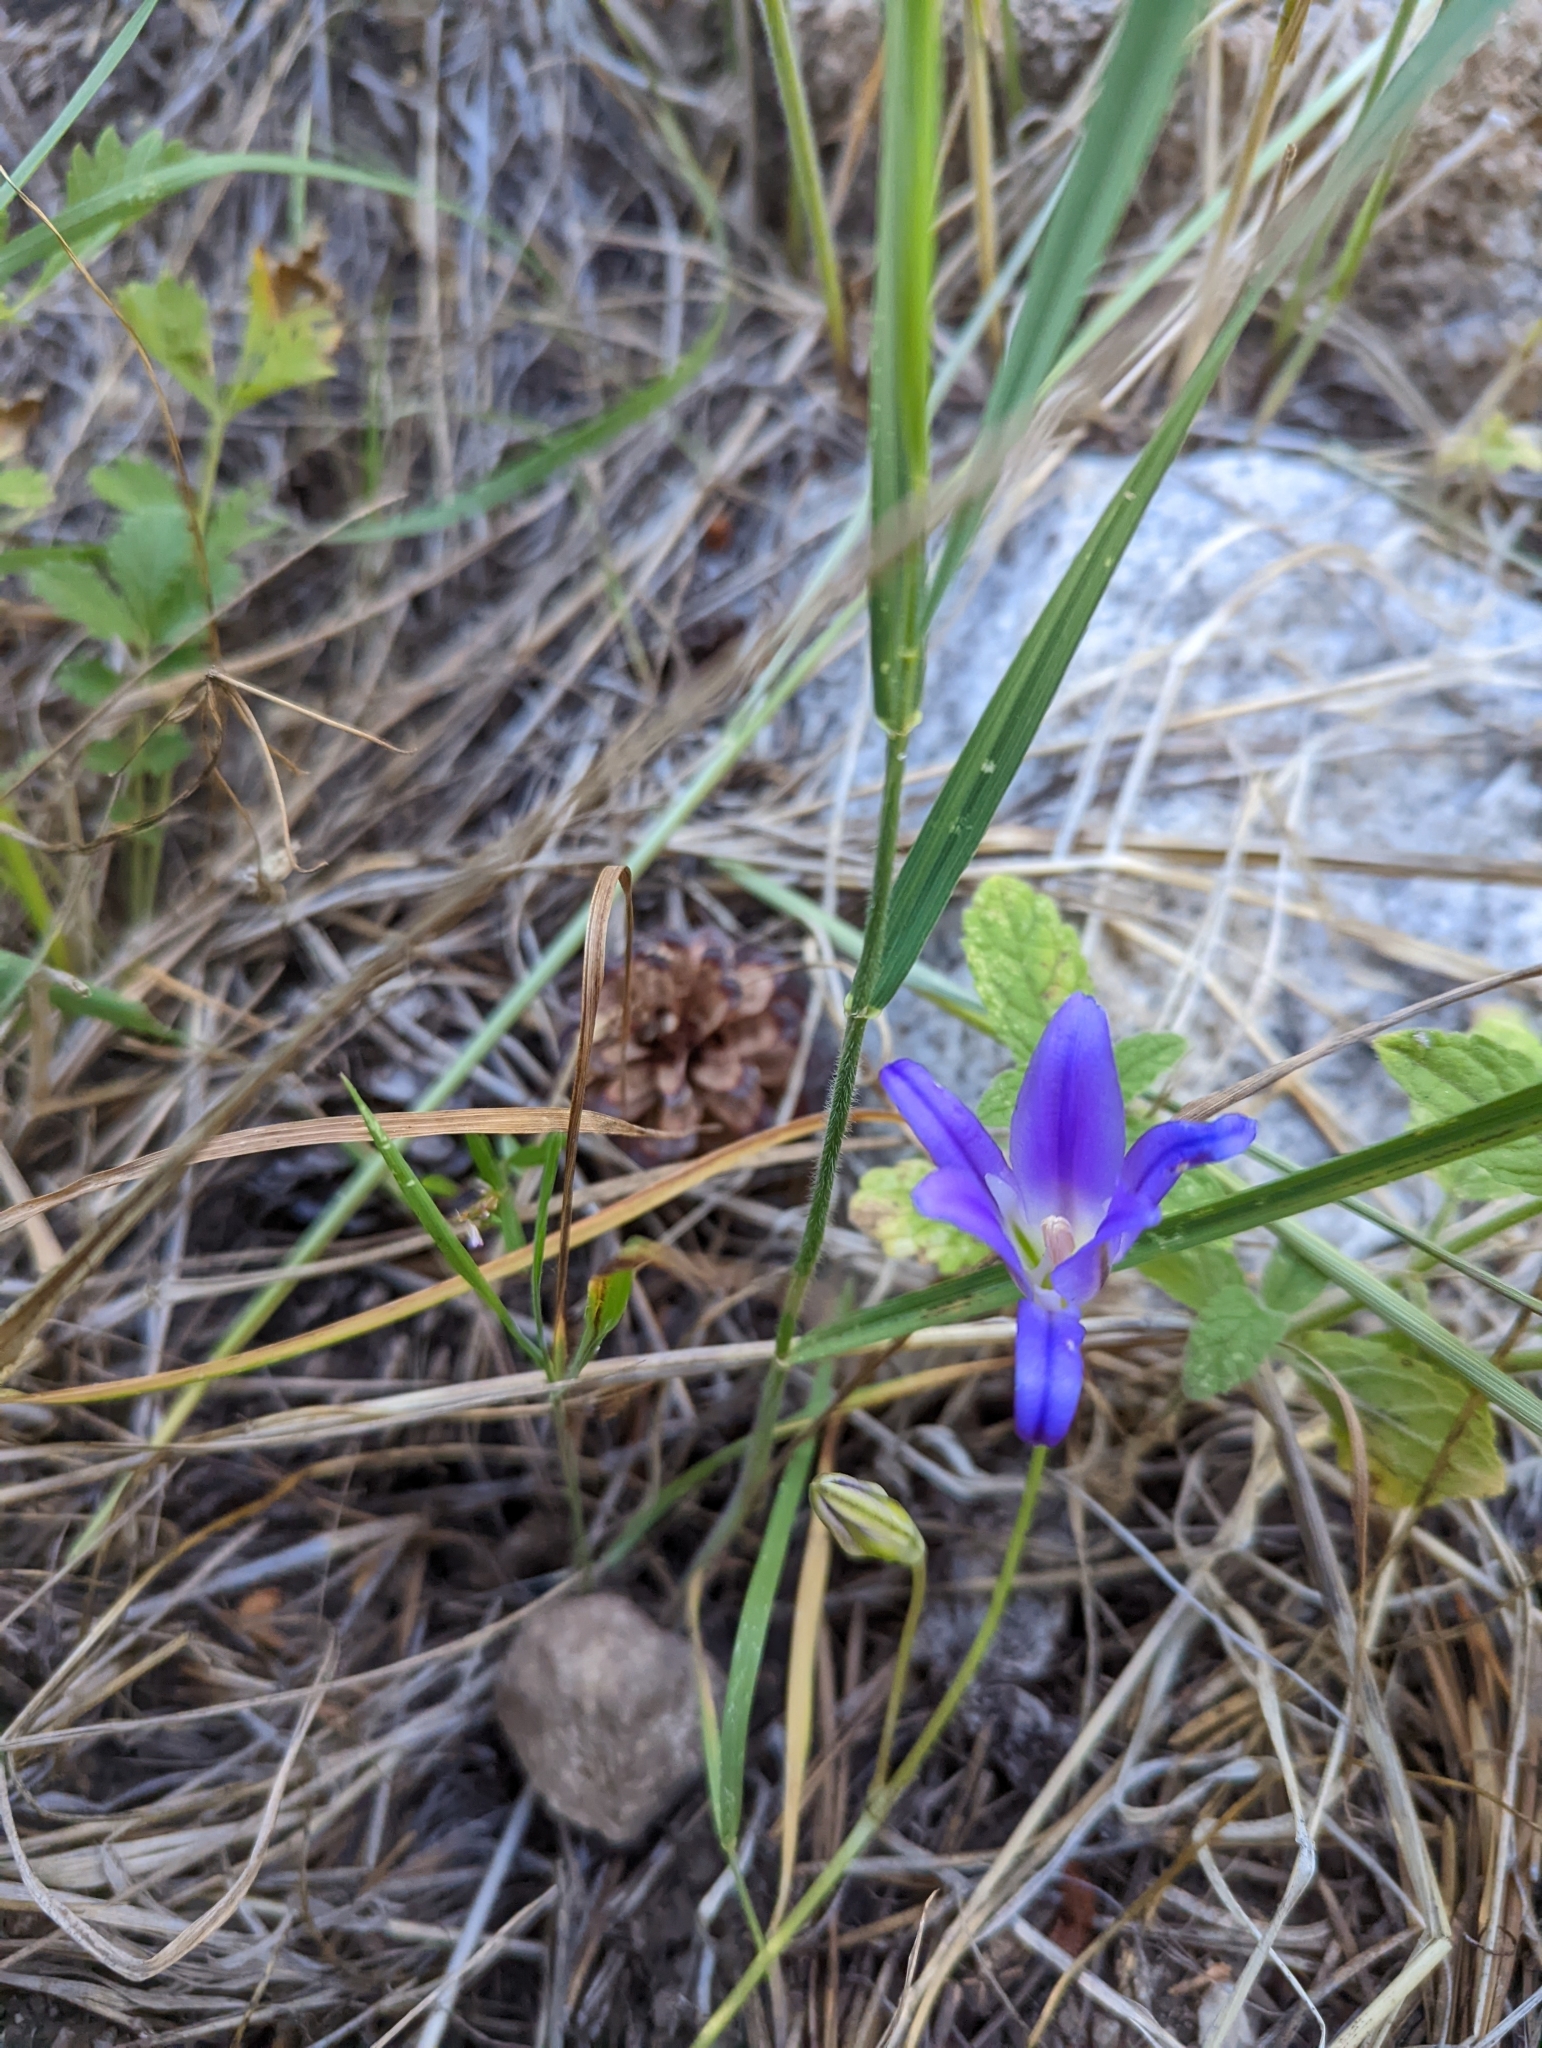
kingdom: Plantae
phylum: Tracheophyta
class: Liliopsida
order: Asparagales
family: Asparagaceae
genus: Brodiaea
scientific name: Brodiaea elegans
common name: Elegant cluster-lily
